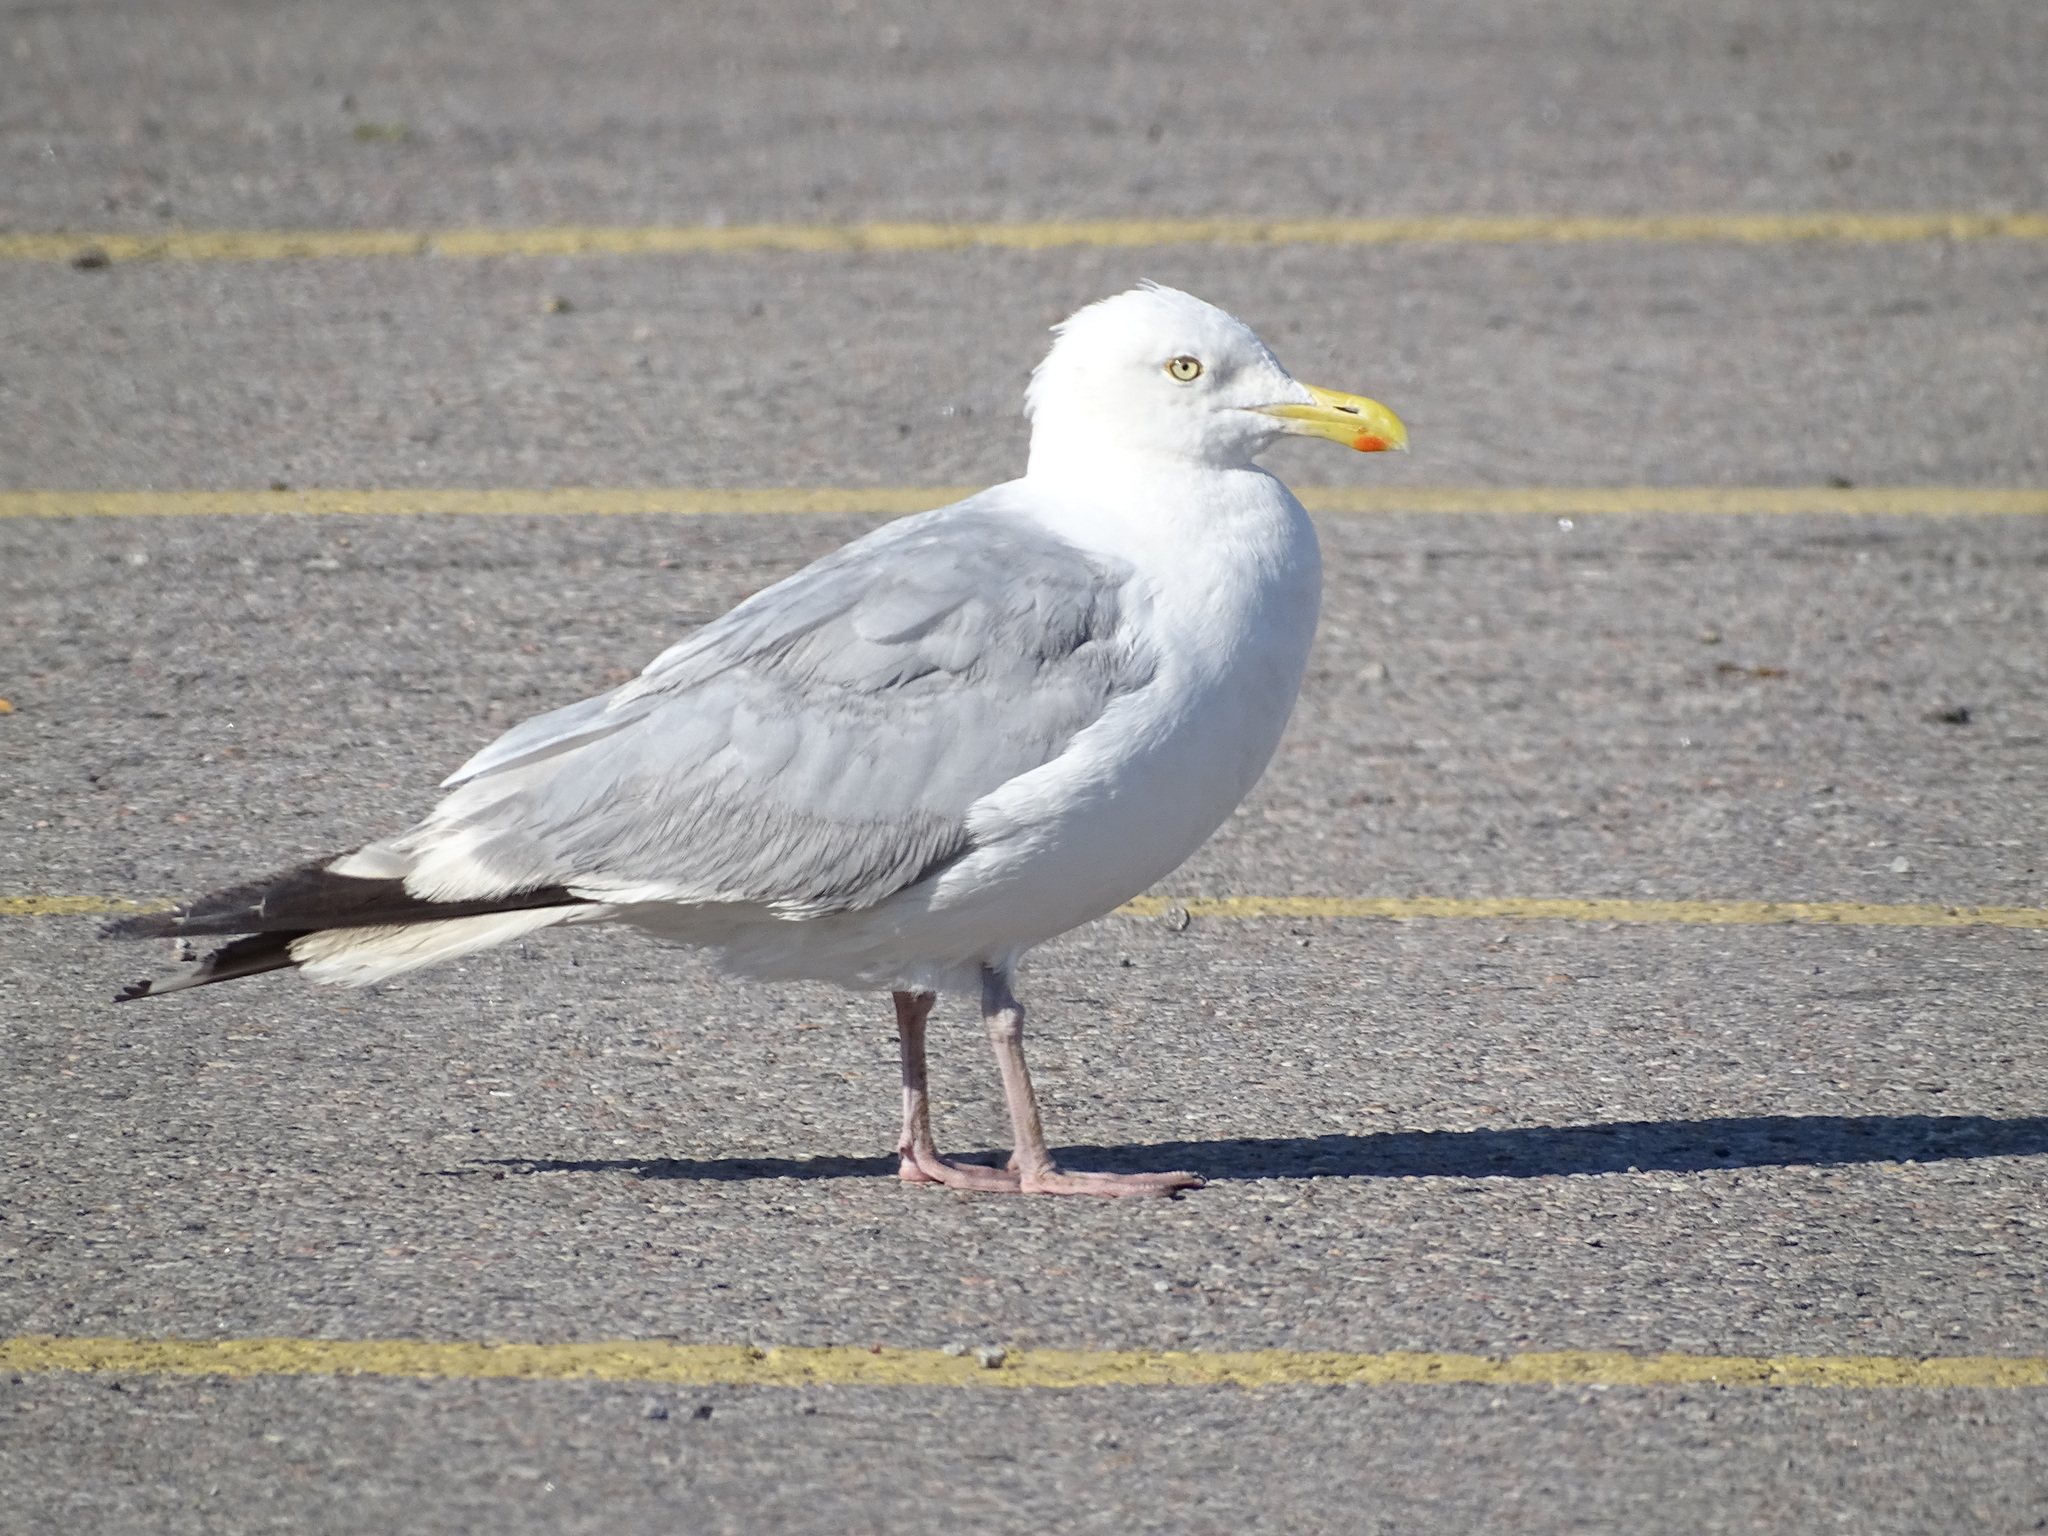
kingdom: Animalia
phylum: Chordata
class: Aves
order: Charadriiformes
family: Laridae
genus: Larus
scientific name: Larus argentatus
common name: Herring gull
